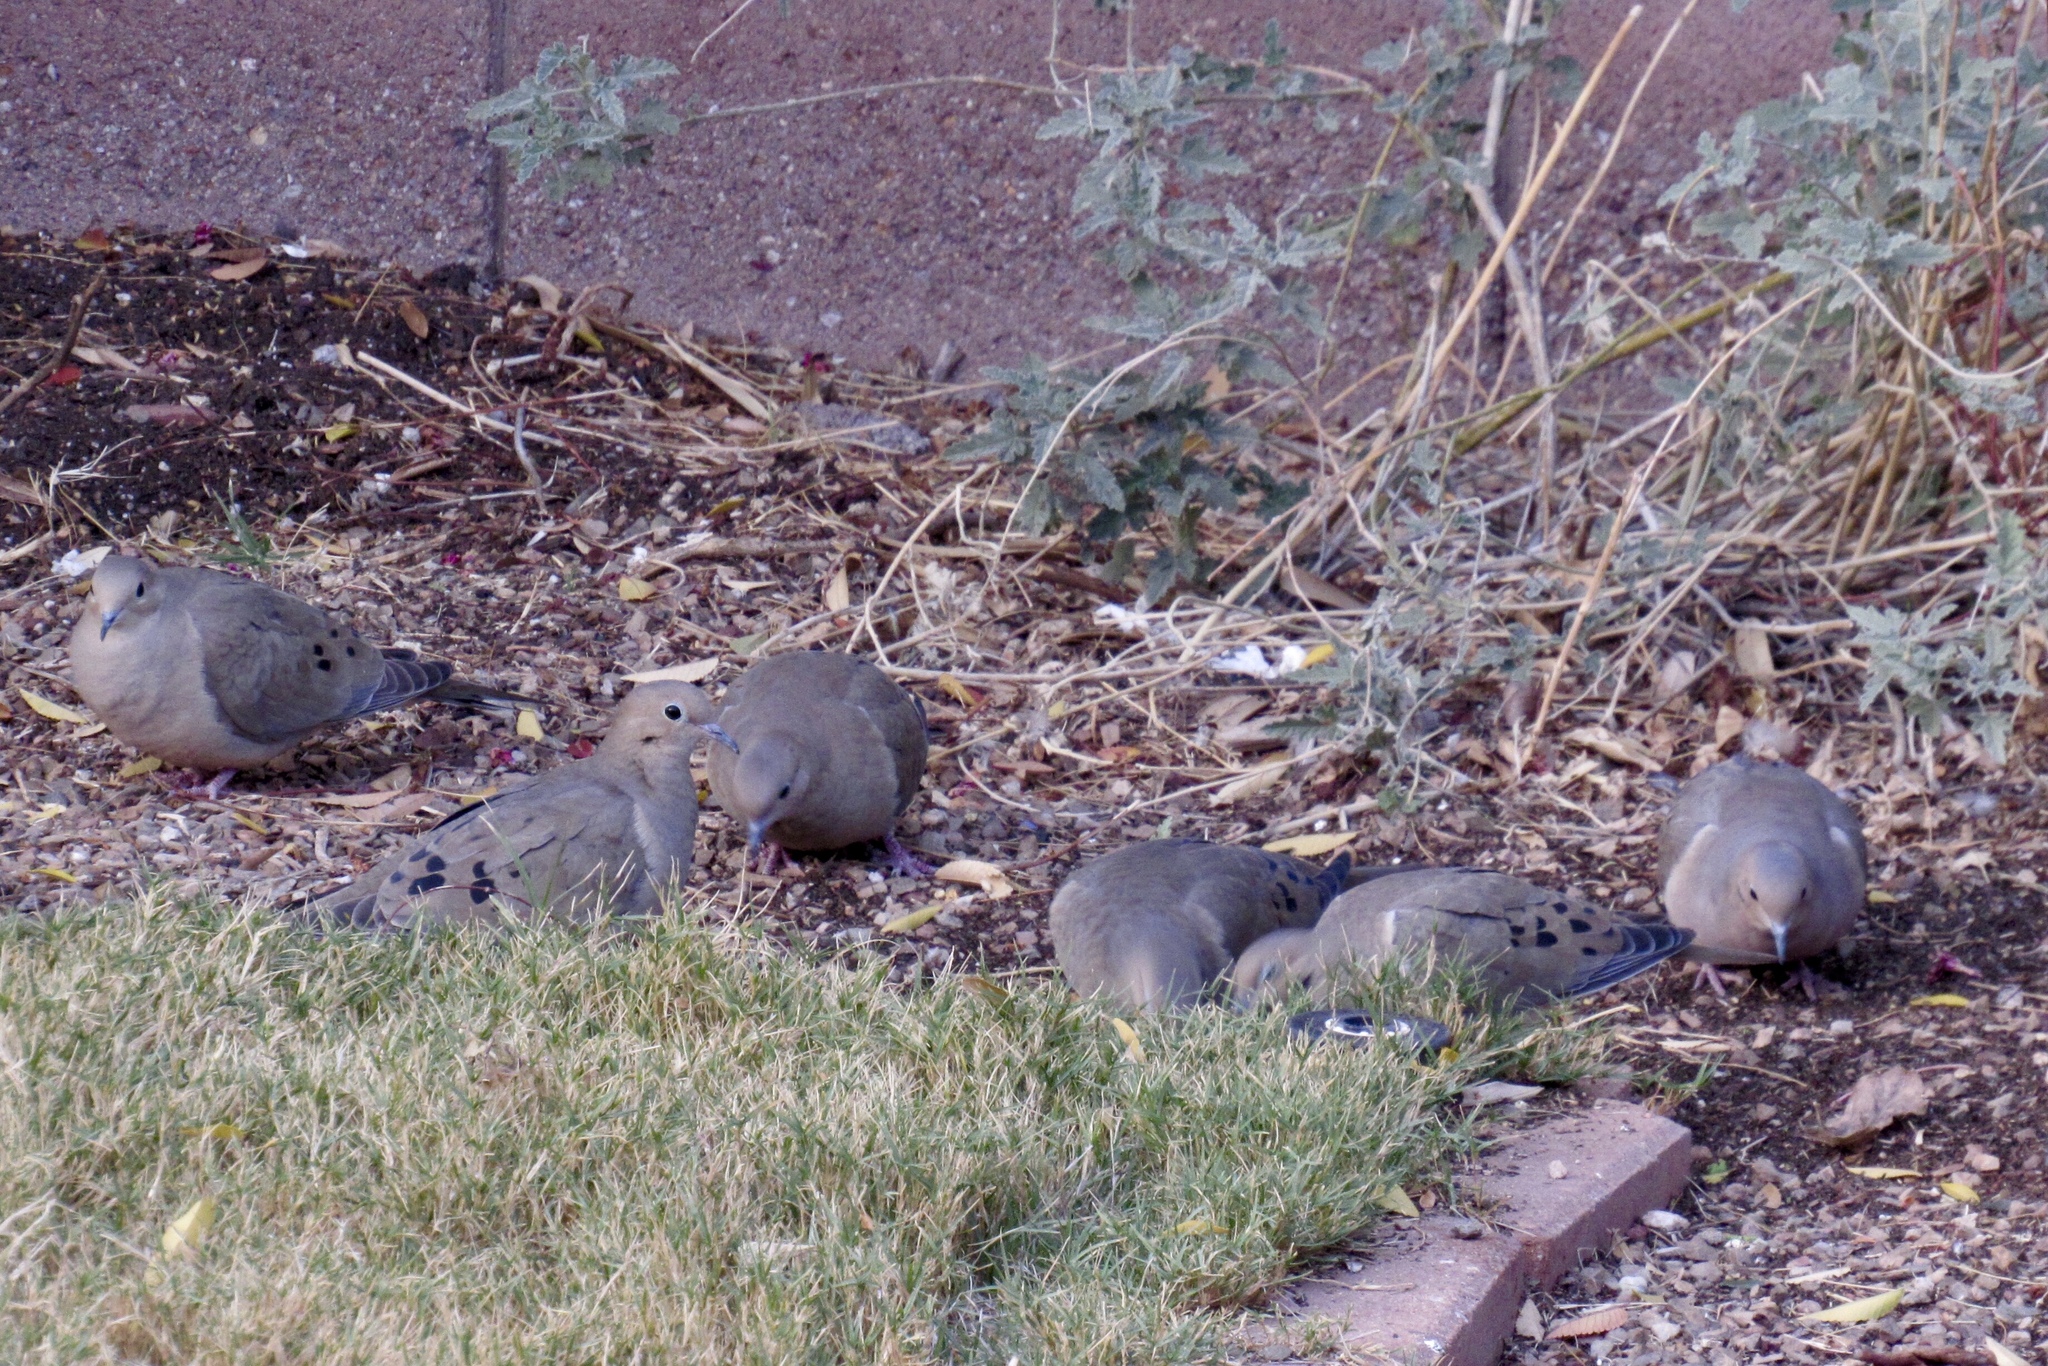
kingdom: Animalia
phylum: Chordata
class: Aves
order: Columbiformes
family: Columbidae
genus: Zenaida
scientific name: Zenaida macroura
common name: Mourning dove
